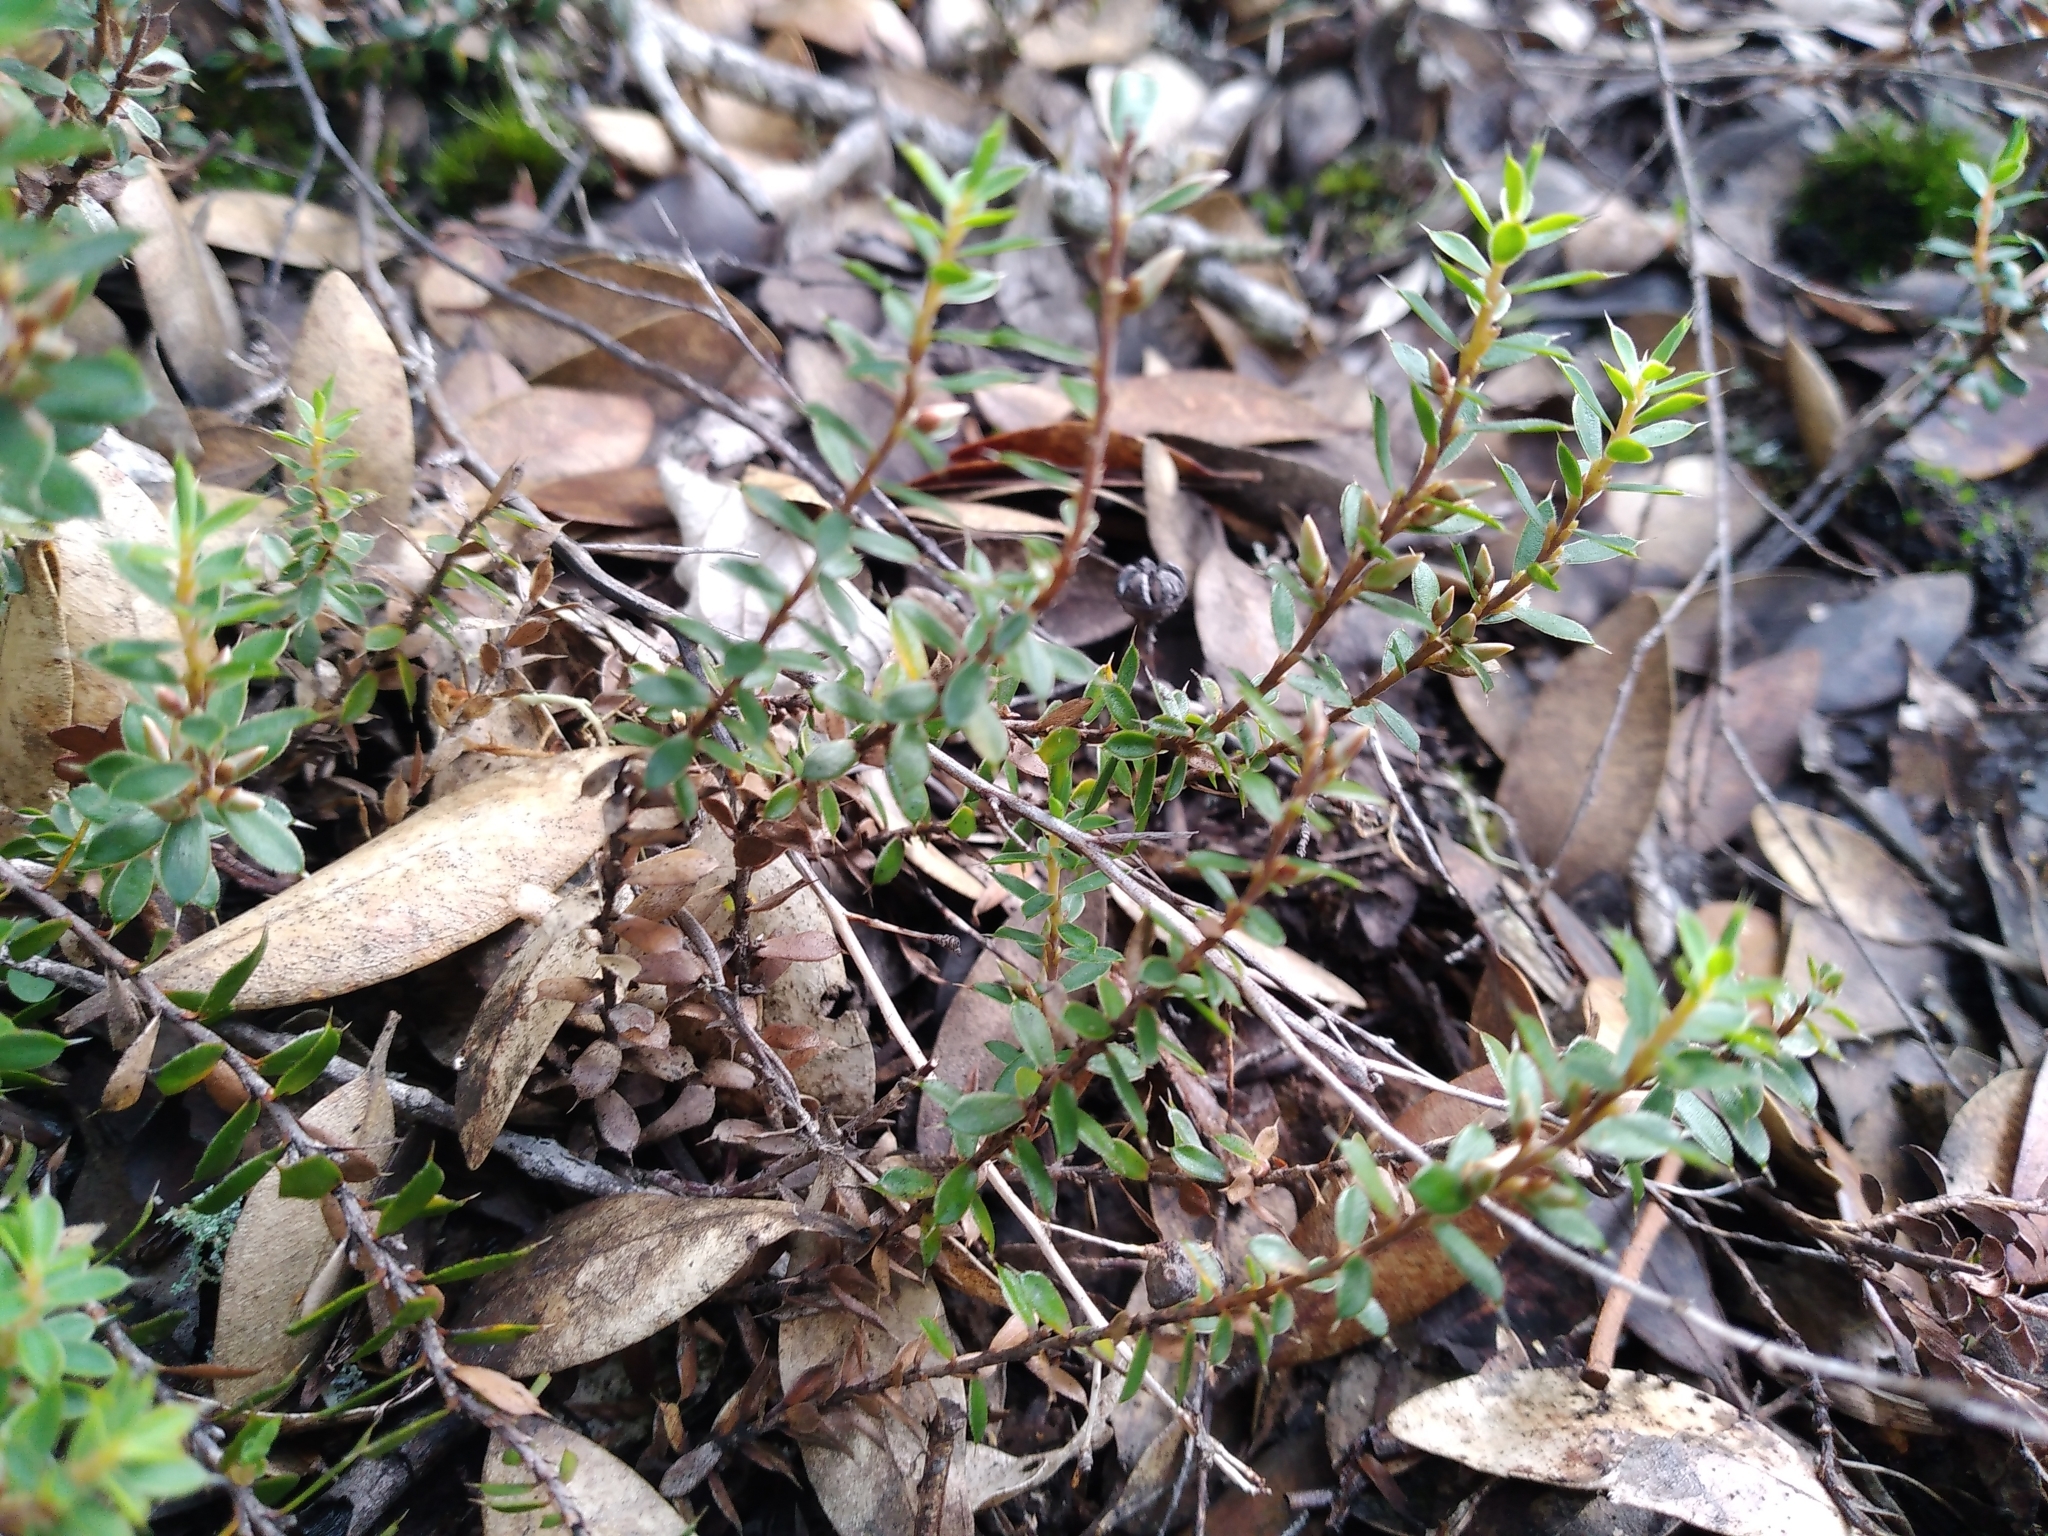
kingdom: Plantae
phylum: Tracheophyta
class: Magnoliopsida
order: Ericales
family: Ericaceae
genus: Styphelia
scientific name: Styphelia nesophila
